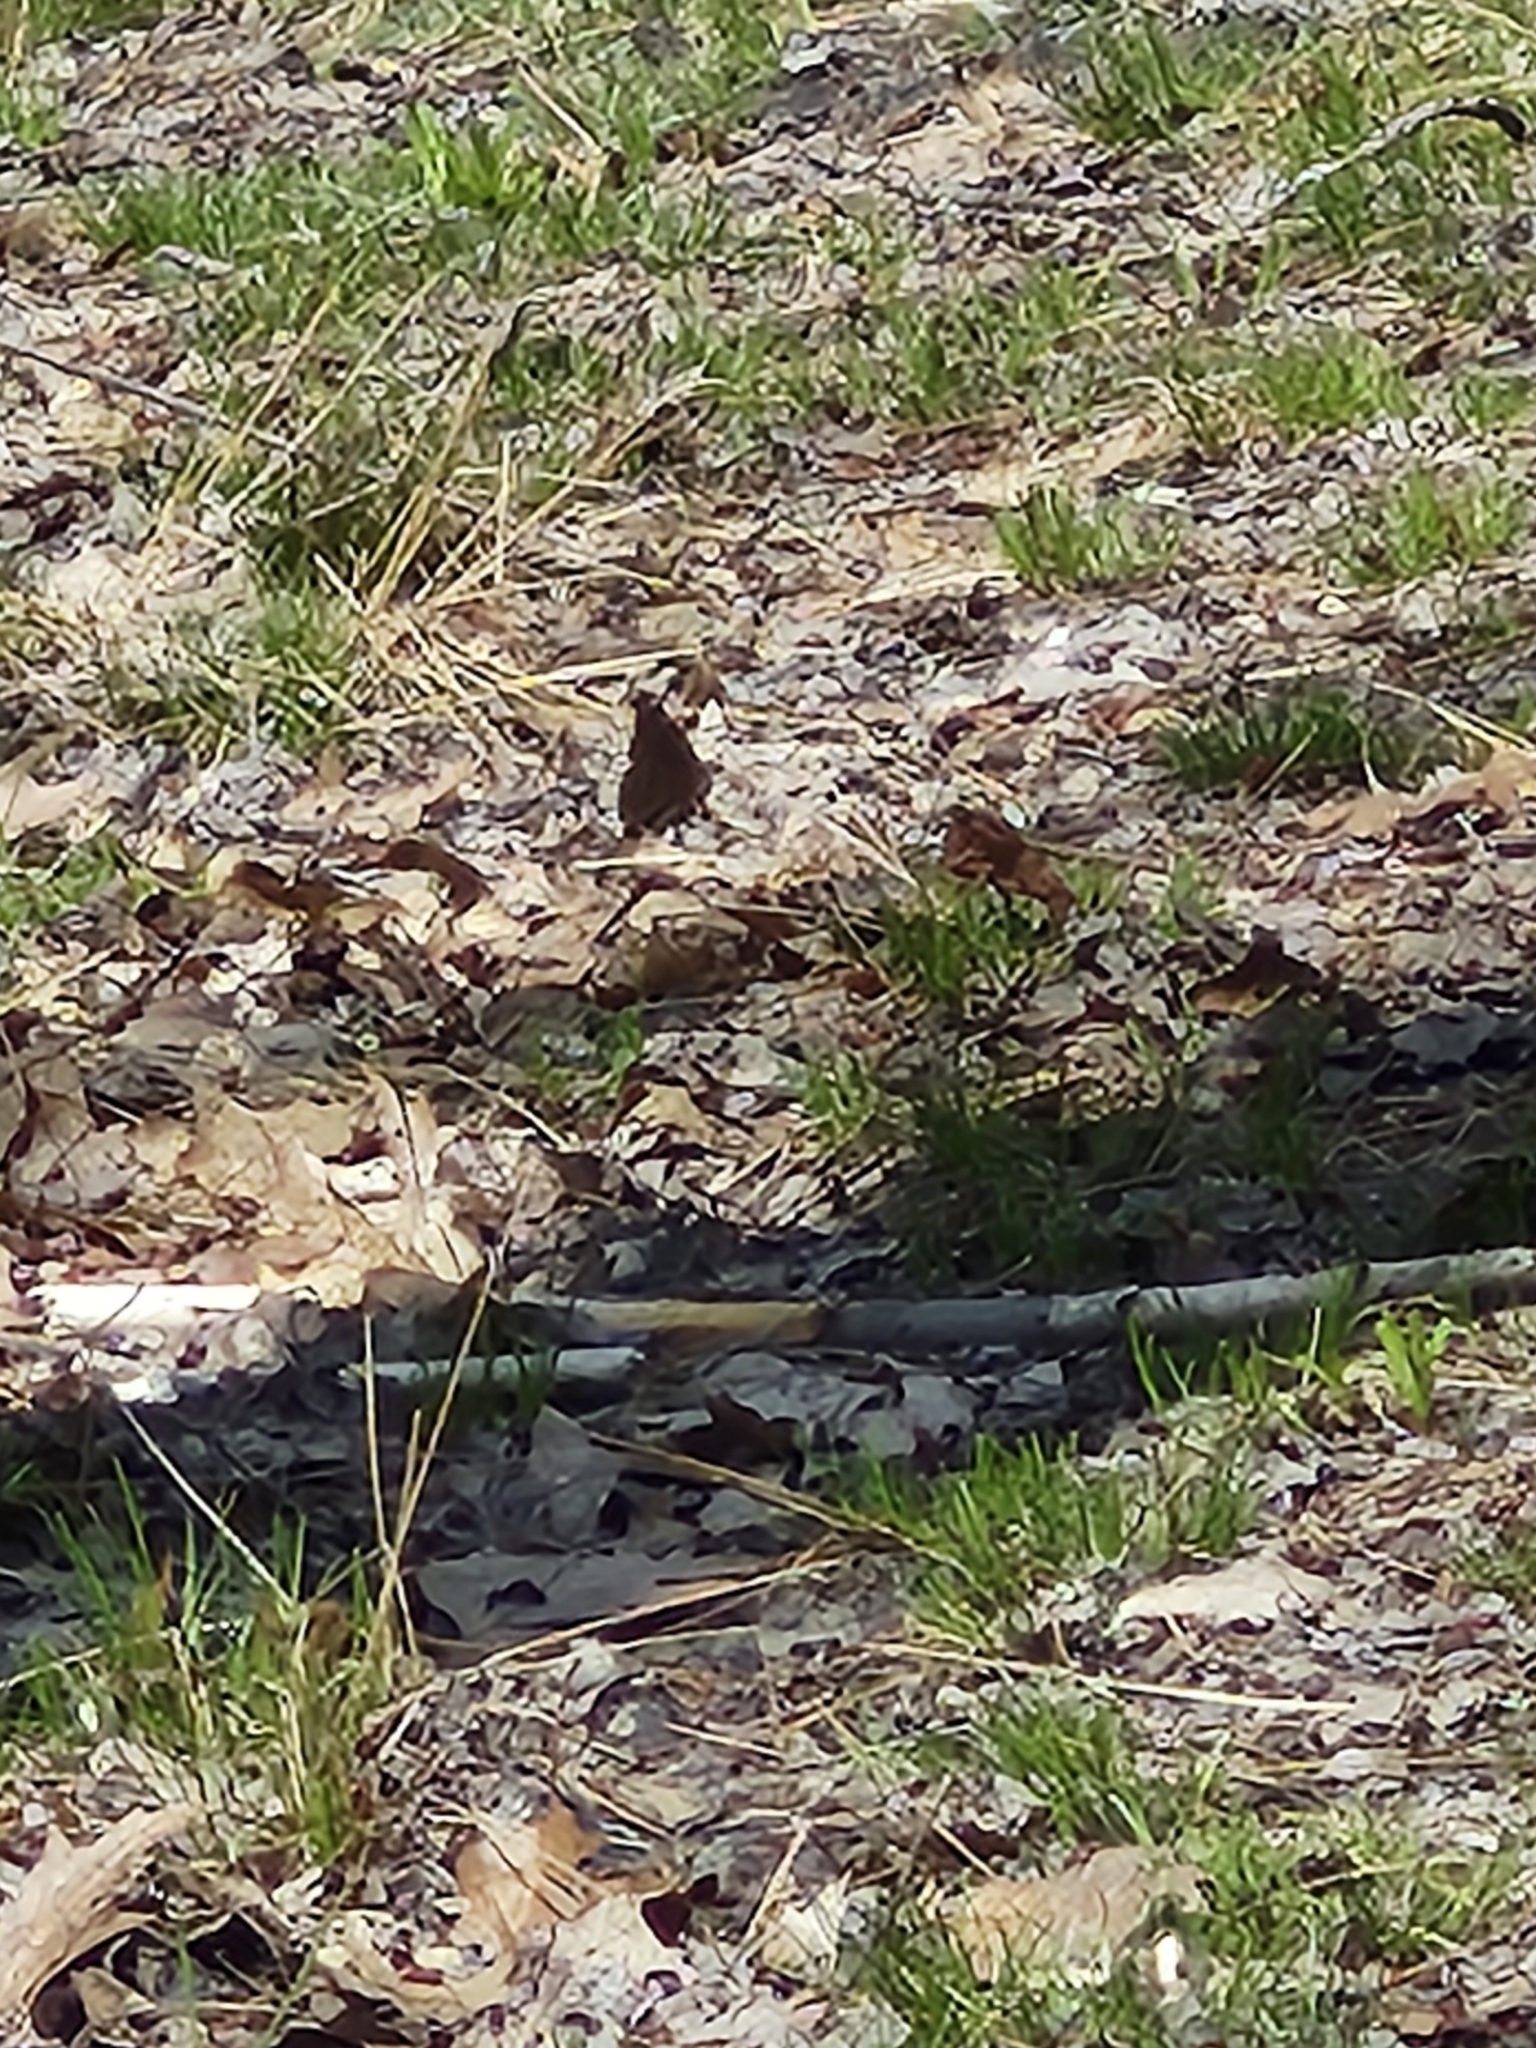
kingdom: Animalia
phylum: Arthropoda
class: Insecta
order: Lepidoptera
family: Nymphalidae
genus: Nymphalis
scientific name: Nymphalis antiopa
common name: Camberwell beauty
